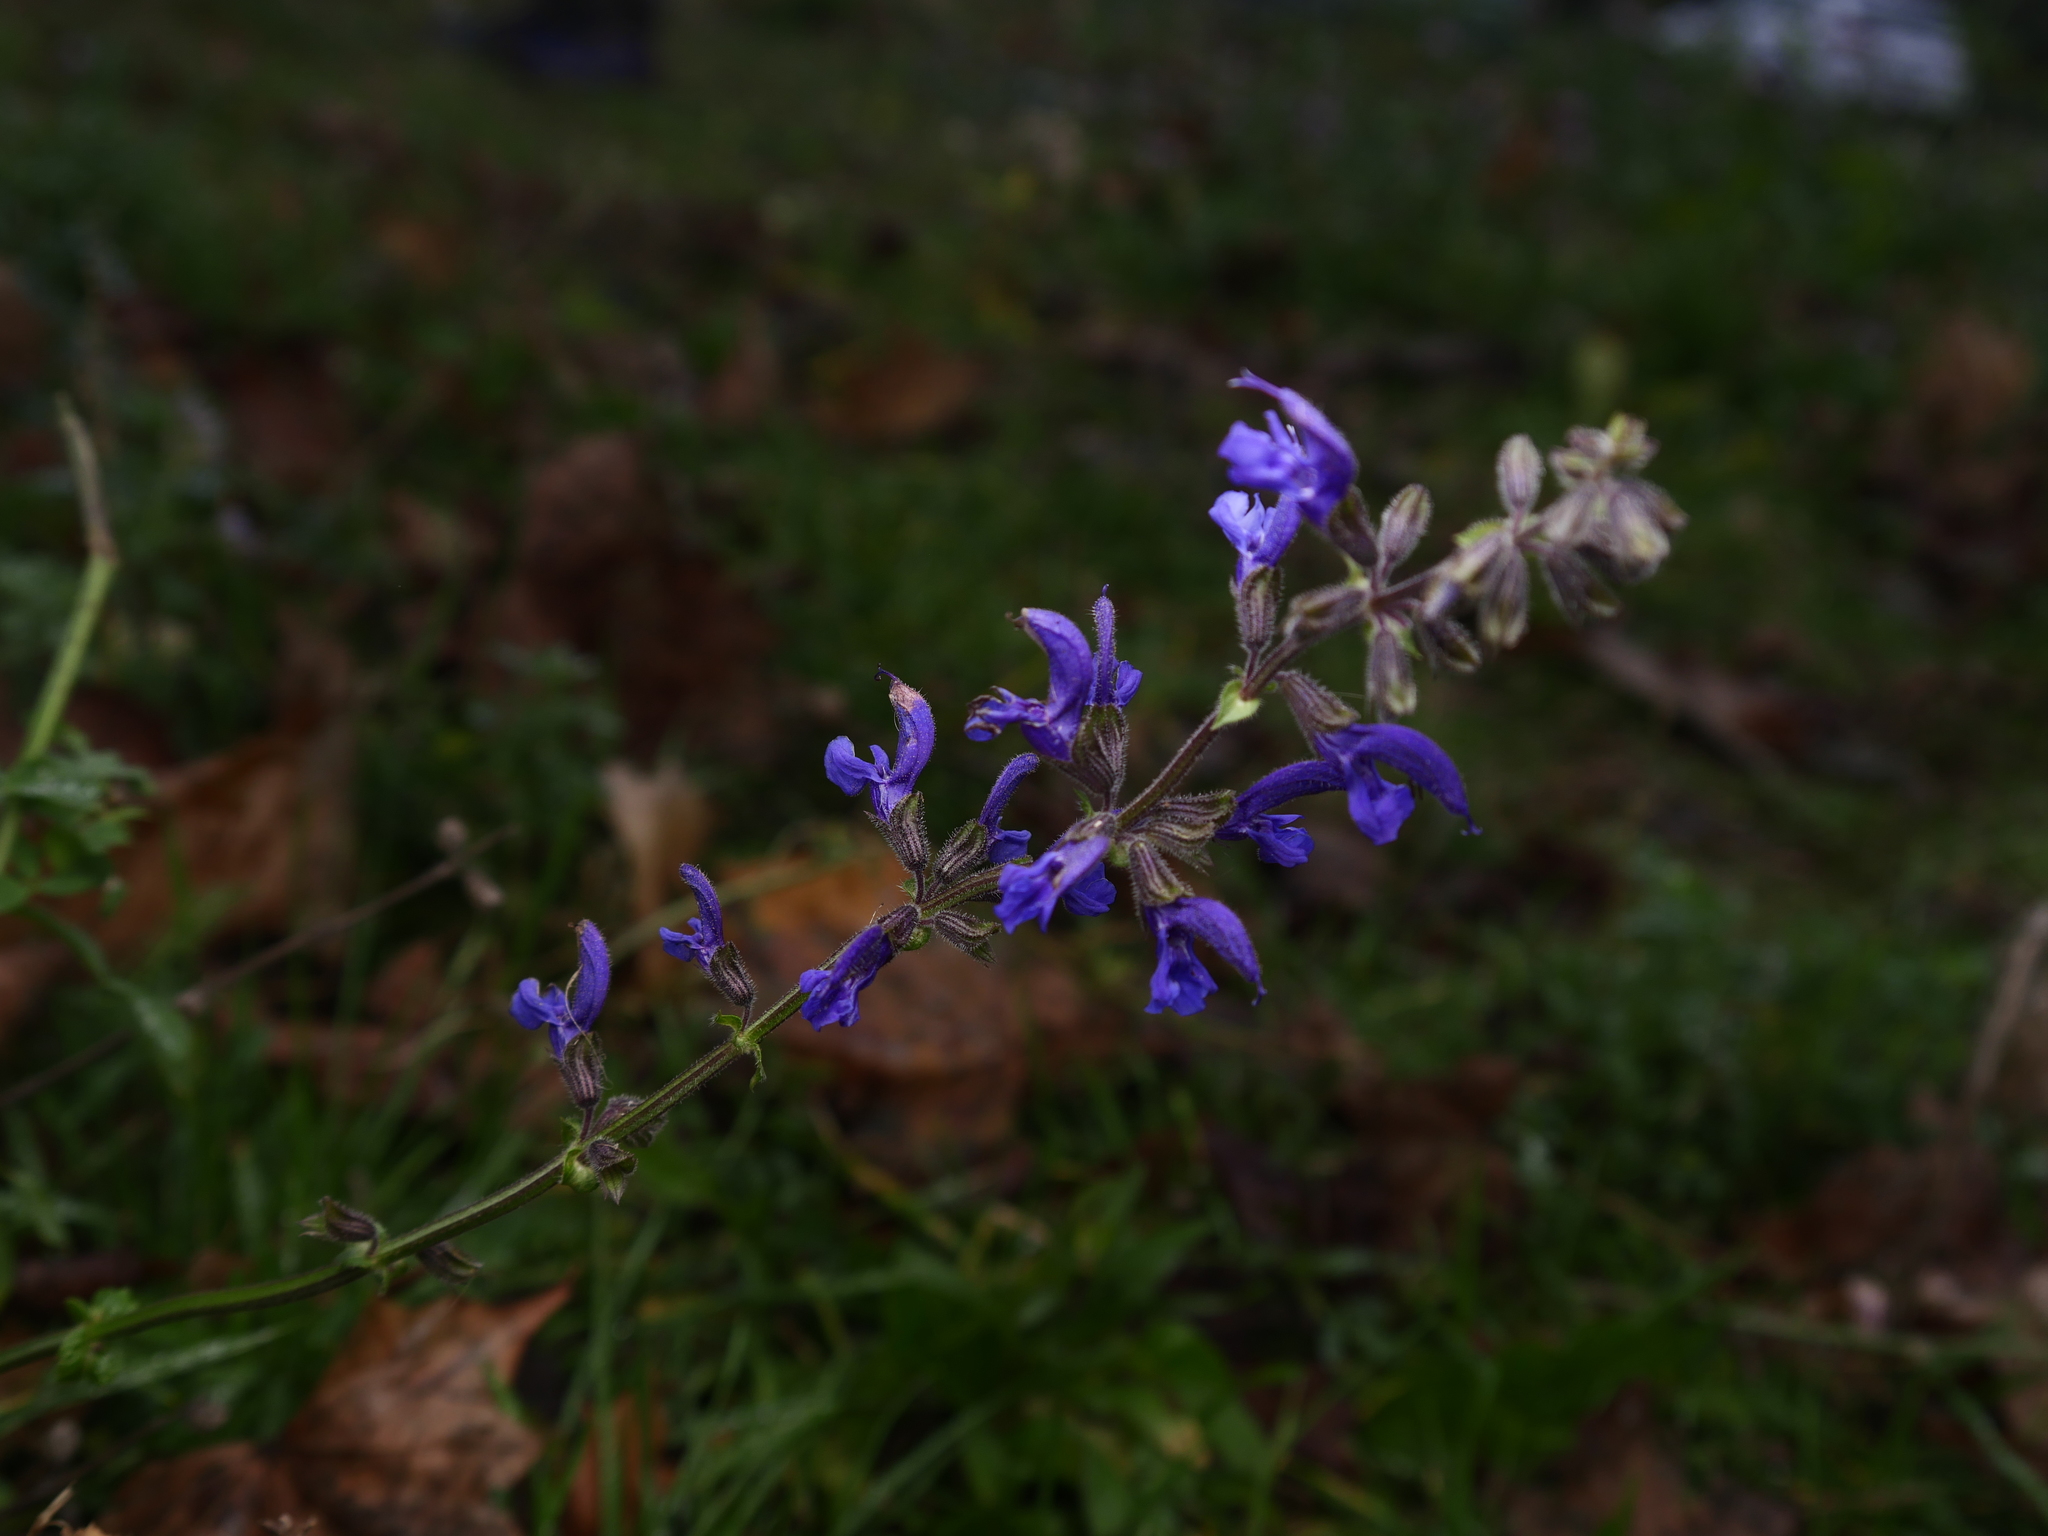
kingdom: Plantae
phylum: Tracheophyta
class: Magnoliopsida
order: Lamiales
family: Lamiaceae
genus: Salvia
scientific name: Salvia pratensis
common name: Meadow sage
